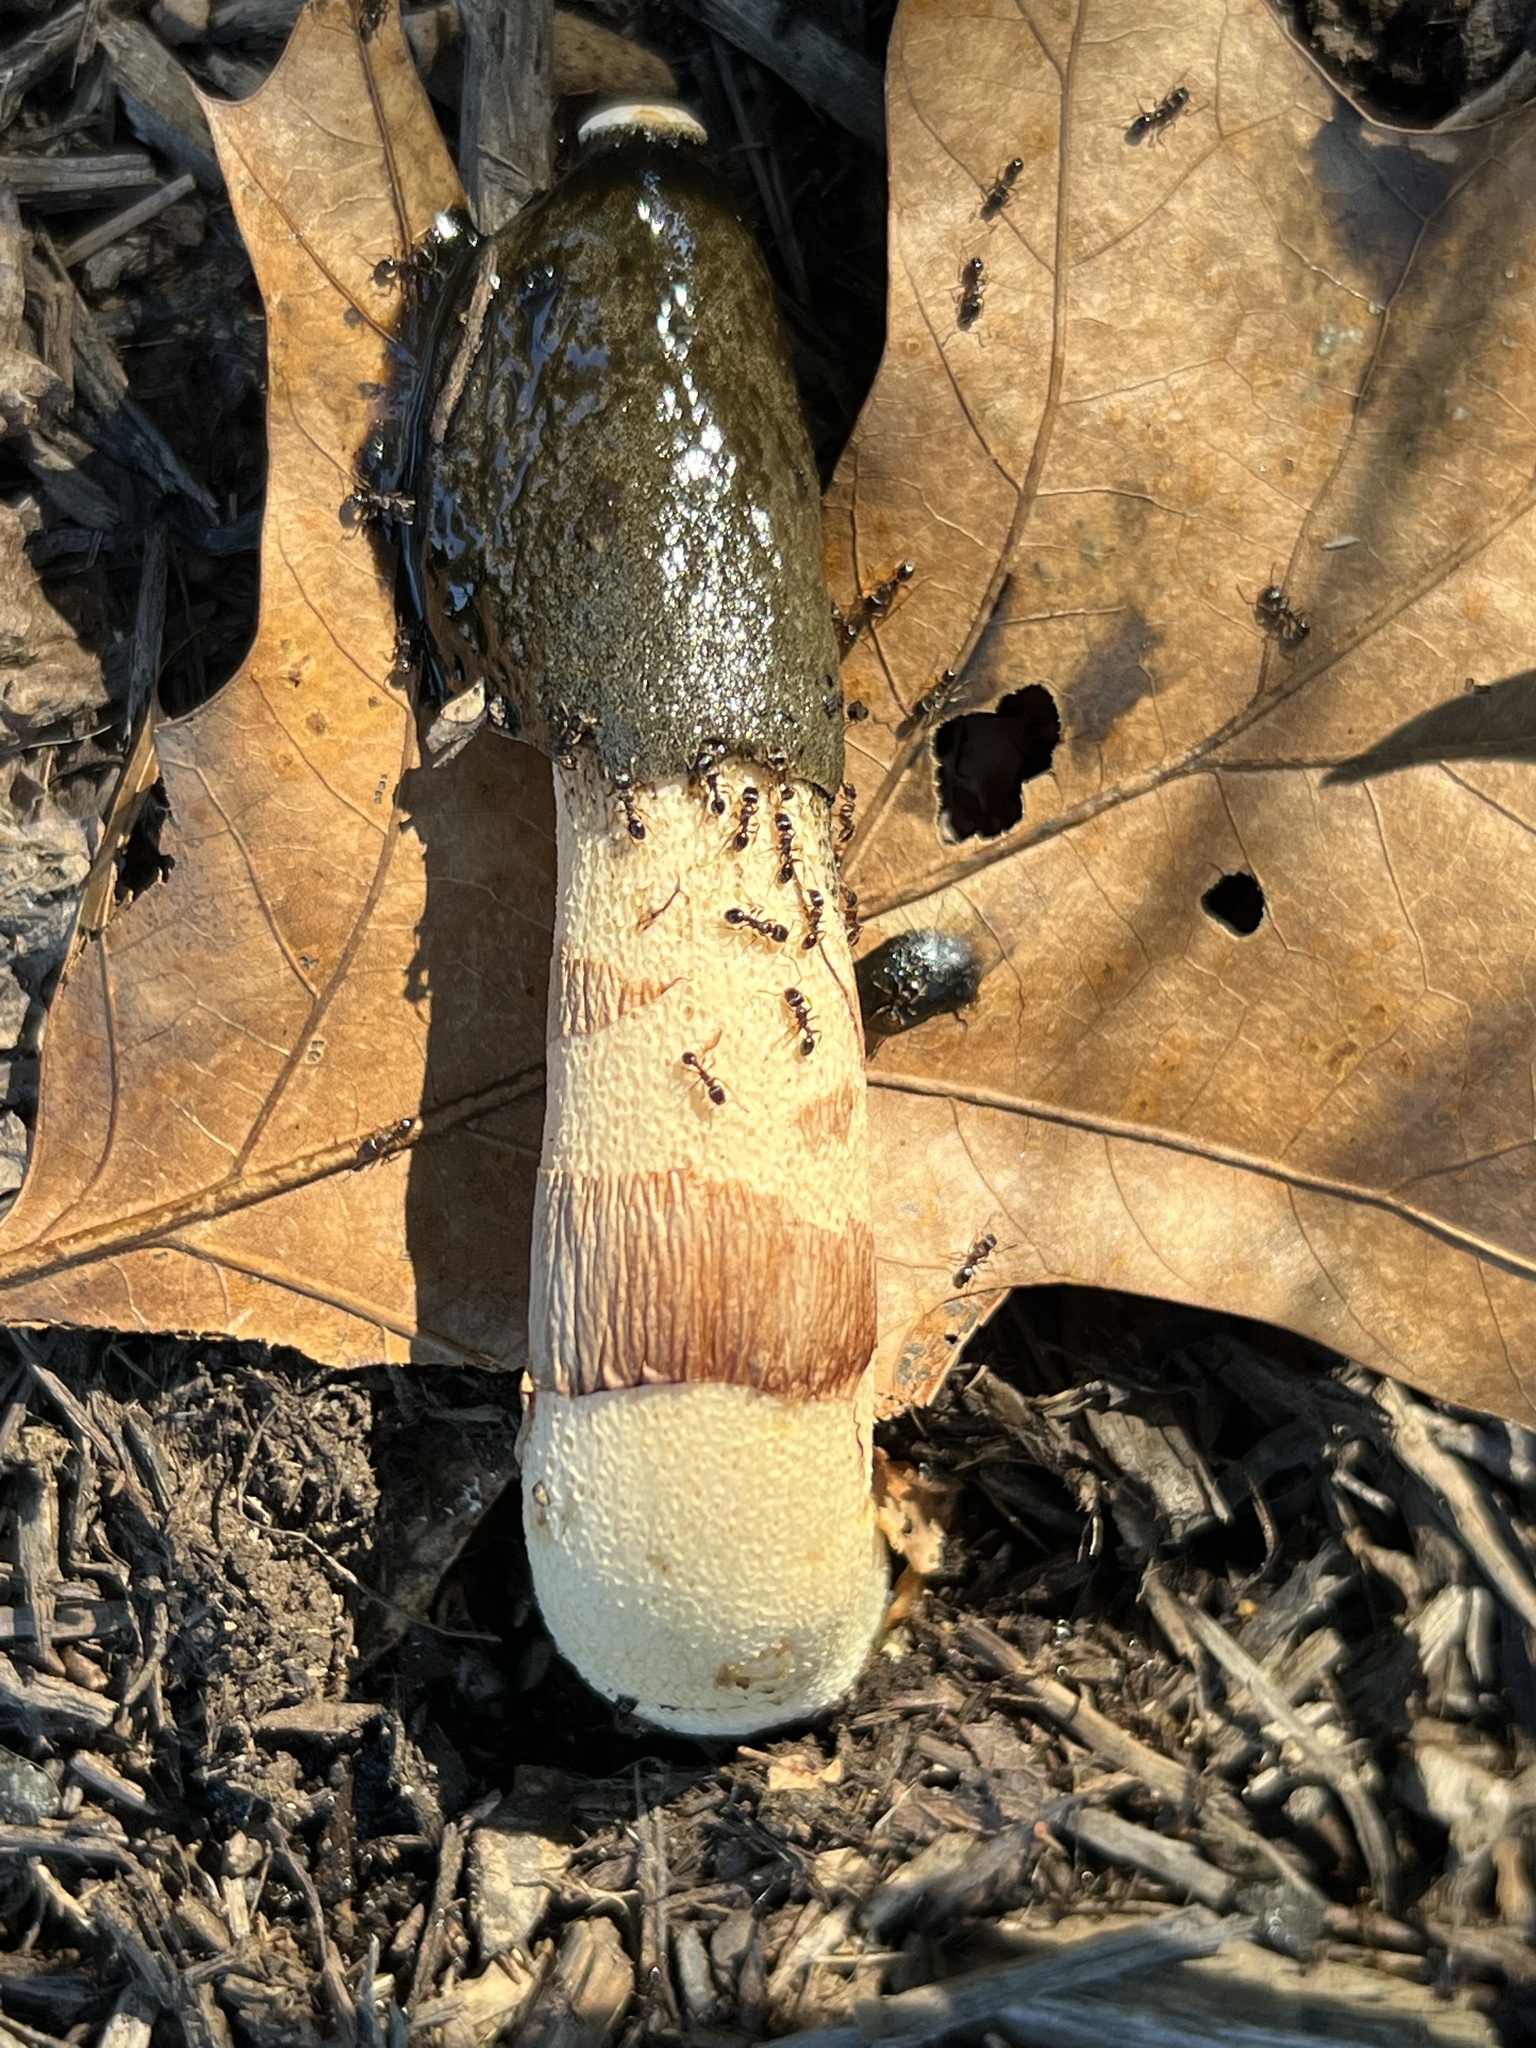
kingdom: Fungi
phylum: Basidiomycota
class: Agaricomycetes
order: Phallales
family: Phallaceae
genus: Phallus
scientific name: Phallus ravenelii
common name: Ravenel's stinkhorn
